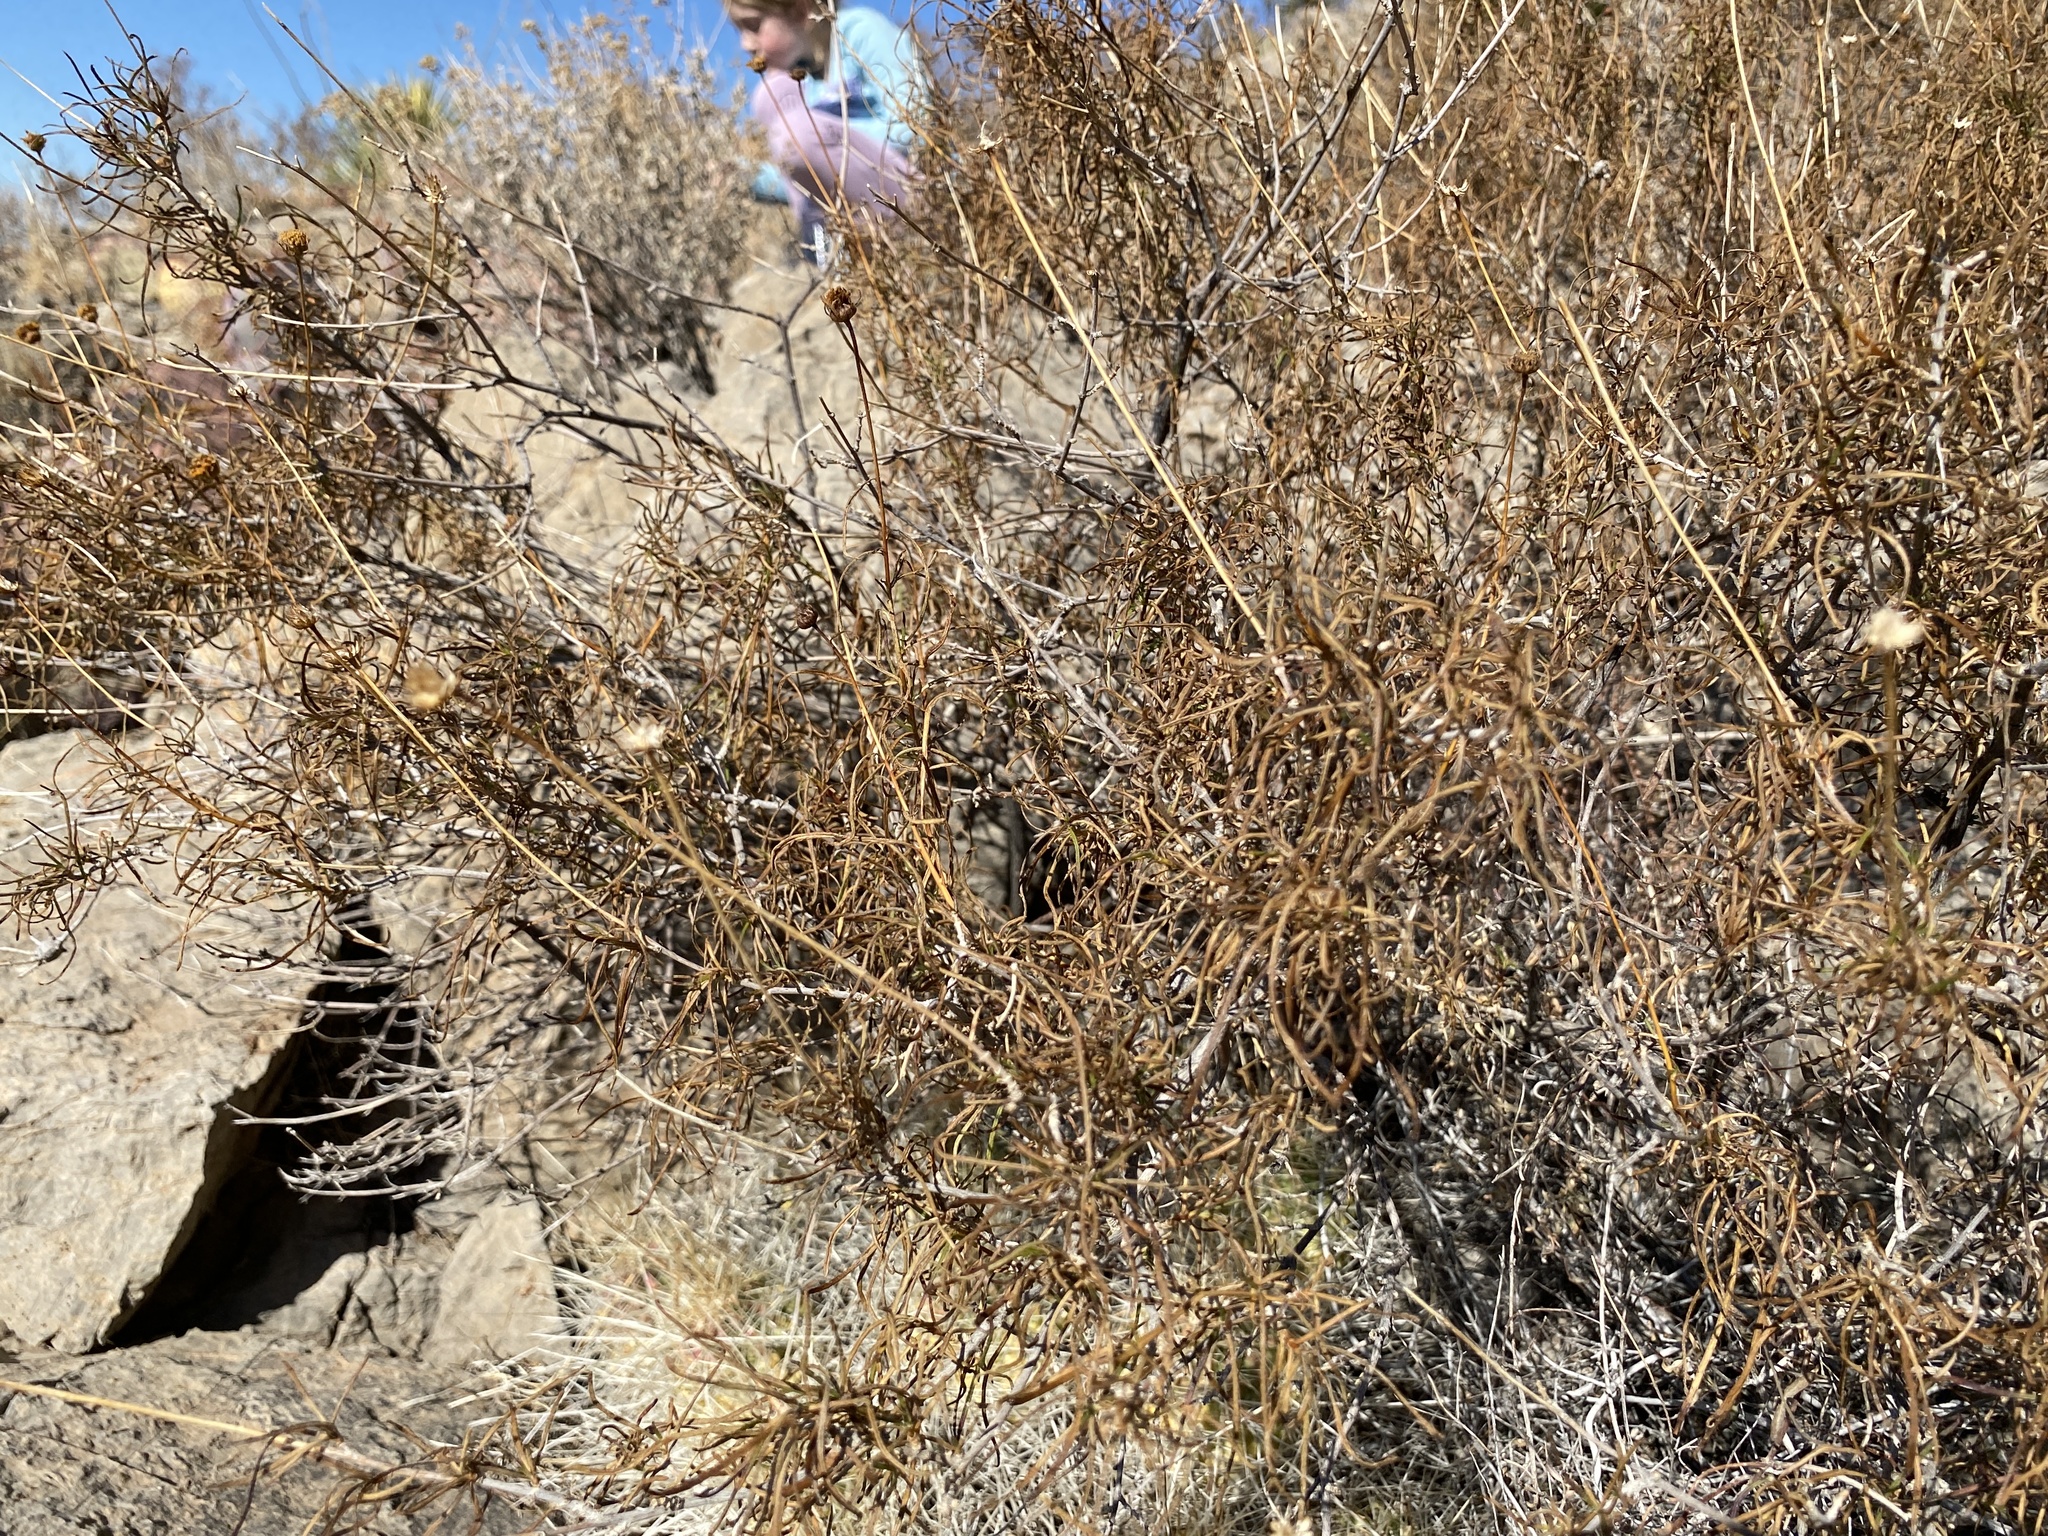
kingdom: Plantae
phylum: Tracheophyta
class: Magnoliopsida
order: Asterales
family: Asteraceae
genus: Sidneya
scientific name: Sidneya tenuifolia
